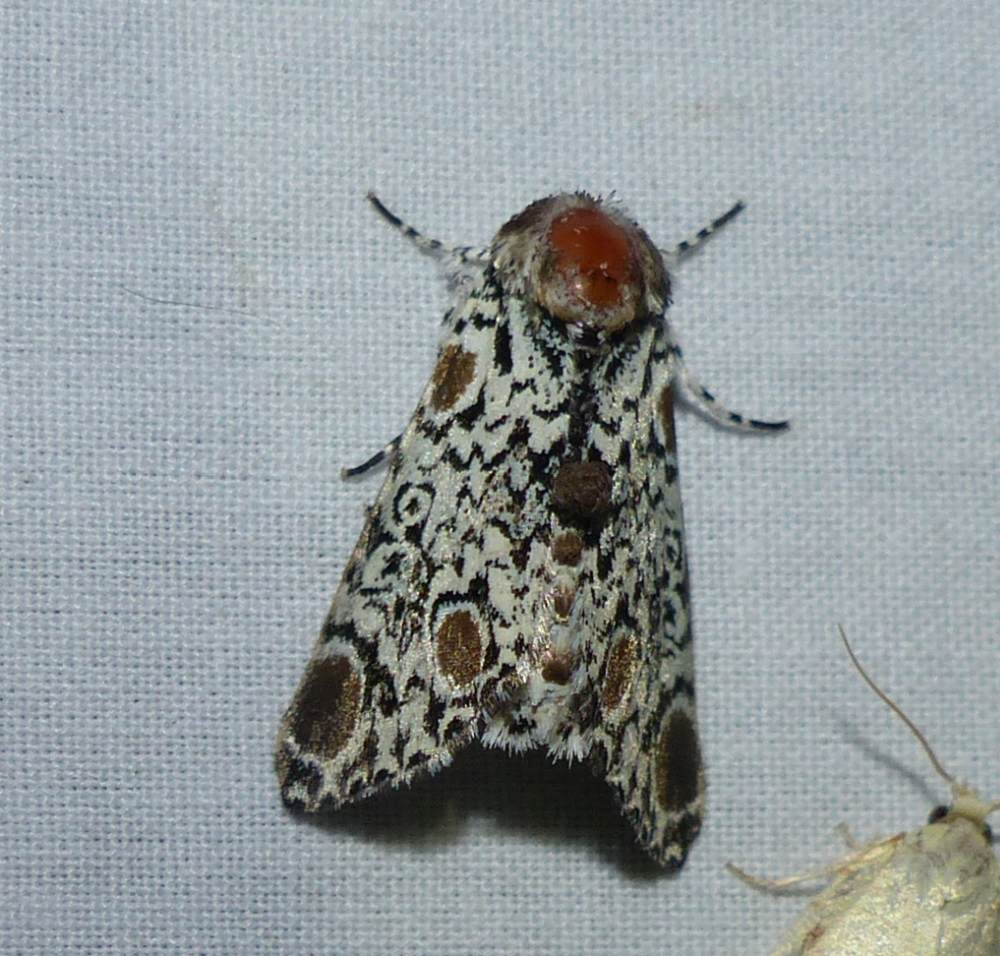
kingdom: Animalia
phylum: Arthropoda
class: Insecta
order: Lepidoptera
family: Noctuidae
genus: Harrisimemna
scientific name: Harrisimemna trisignata
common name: Harris threespot
